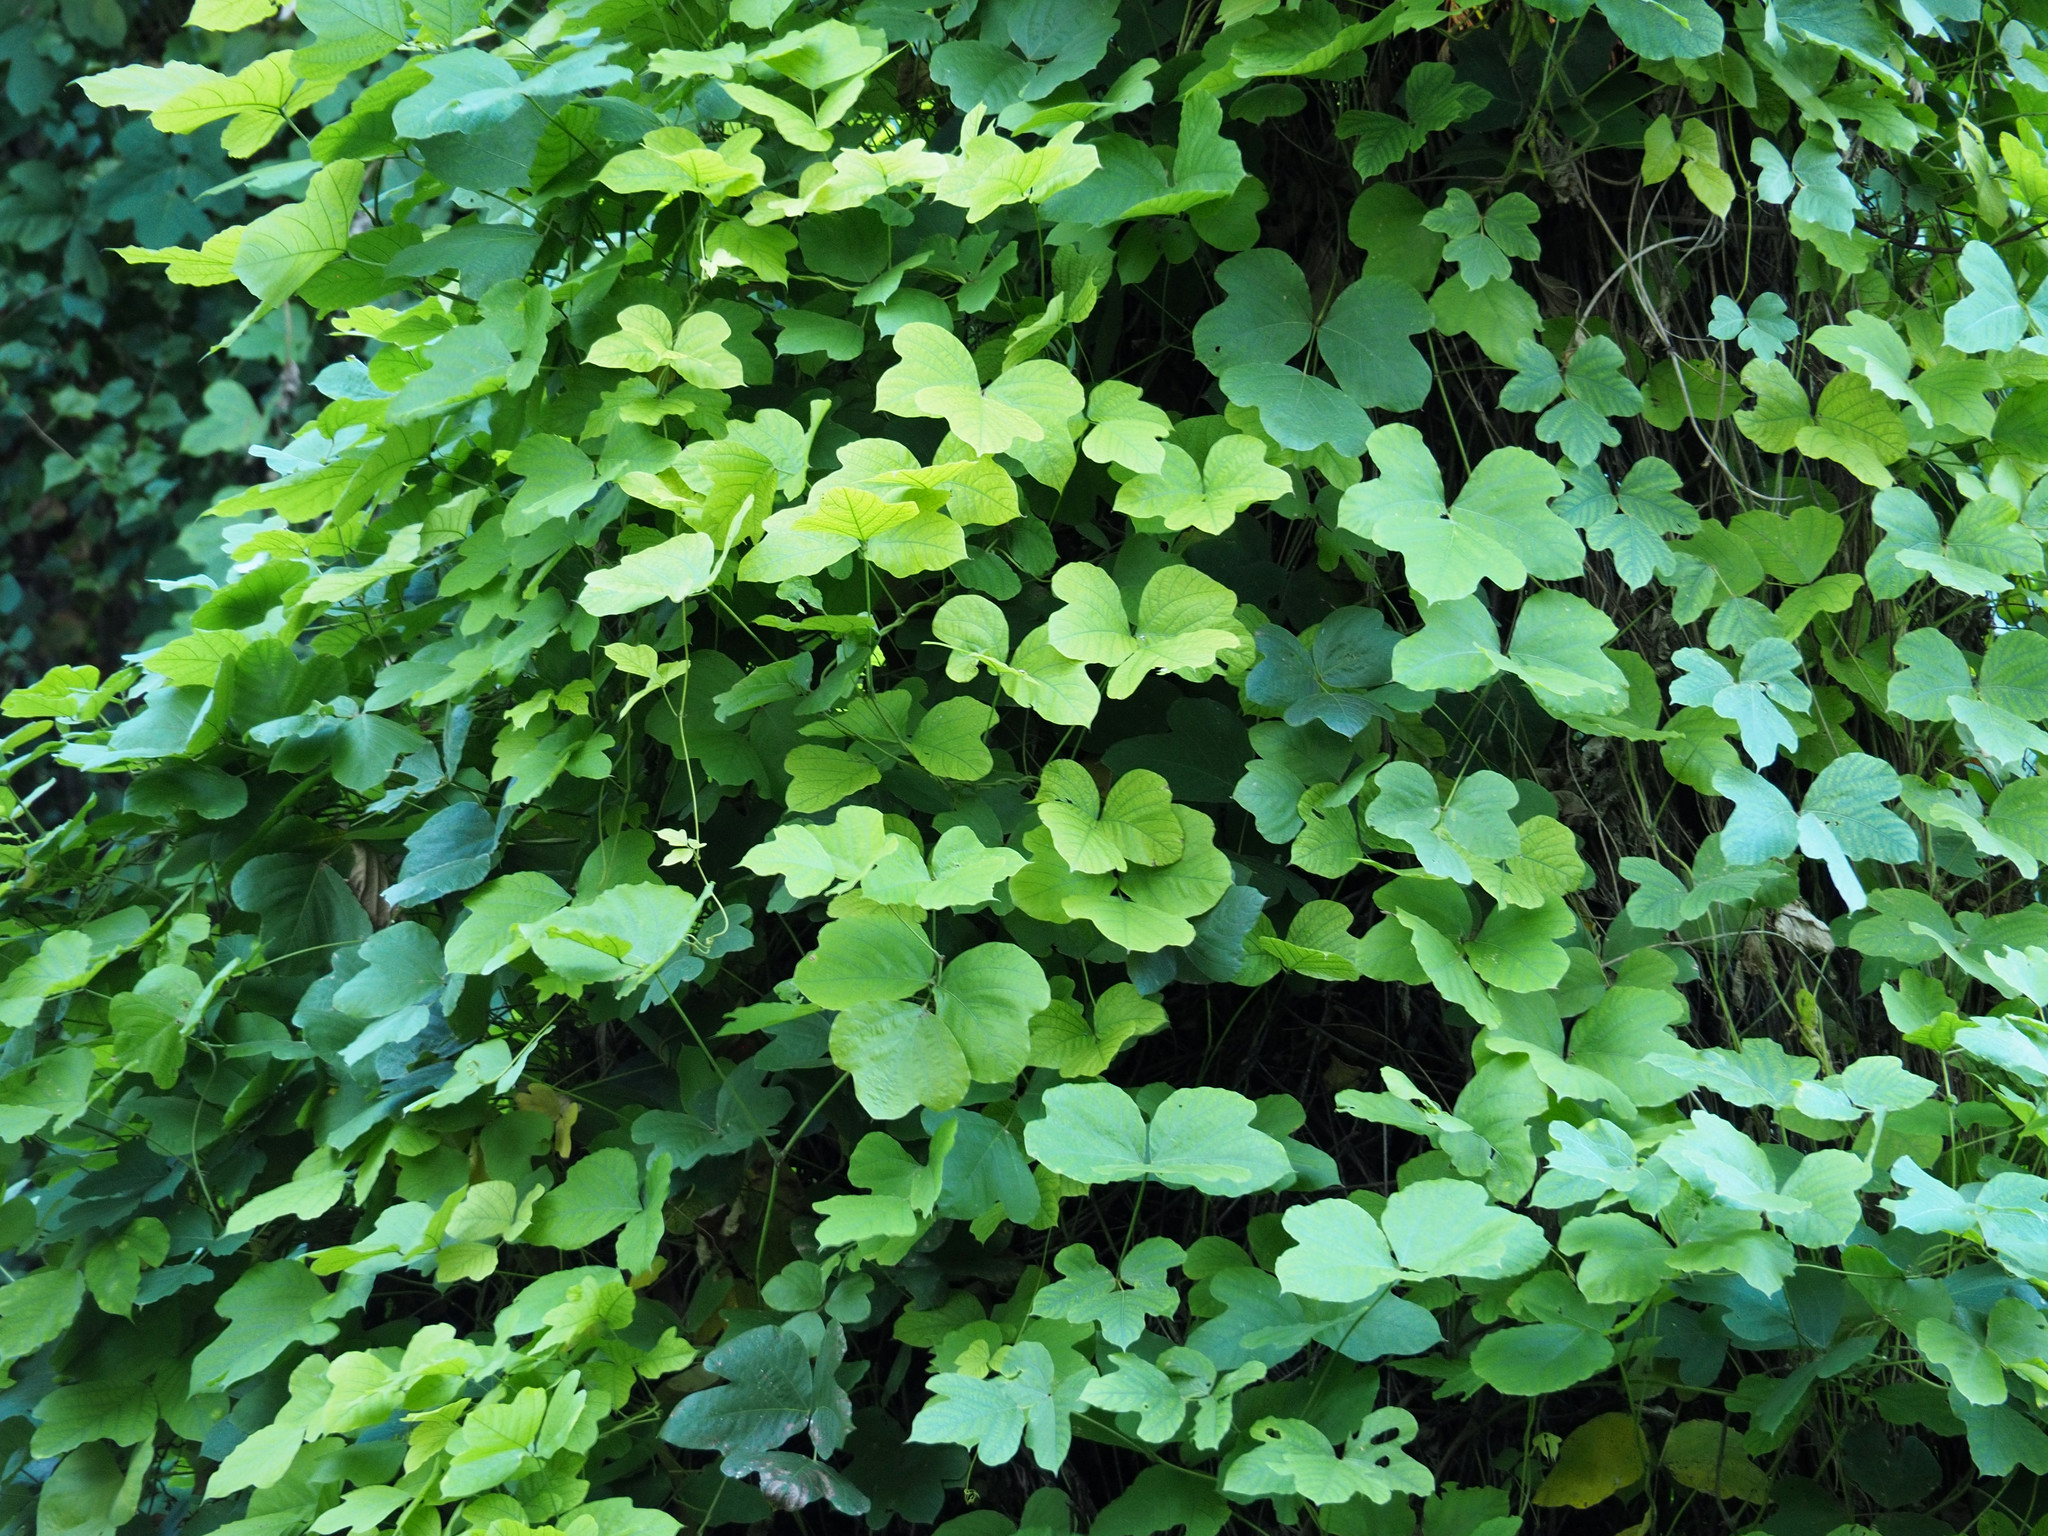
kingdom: Plantae
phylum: Tracheophyta
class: Magnoliopsida
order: Fabales
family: Fabaceae
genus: Pueraria
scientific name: Pueraria montana
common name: Kudzu
